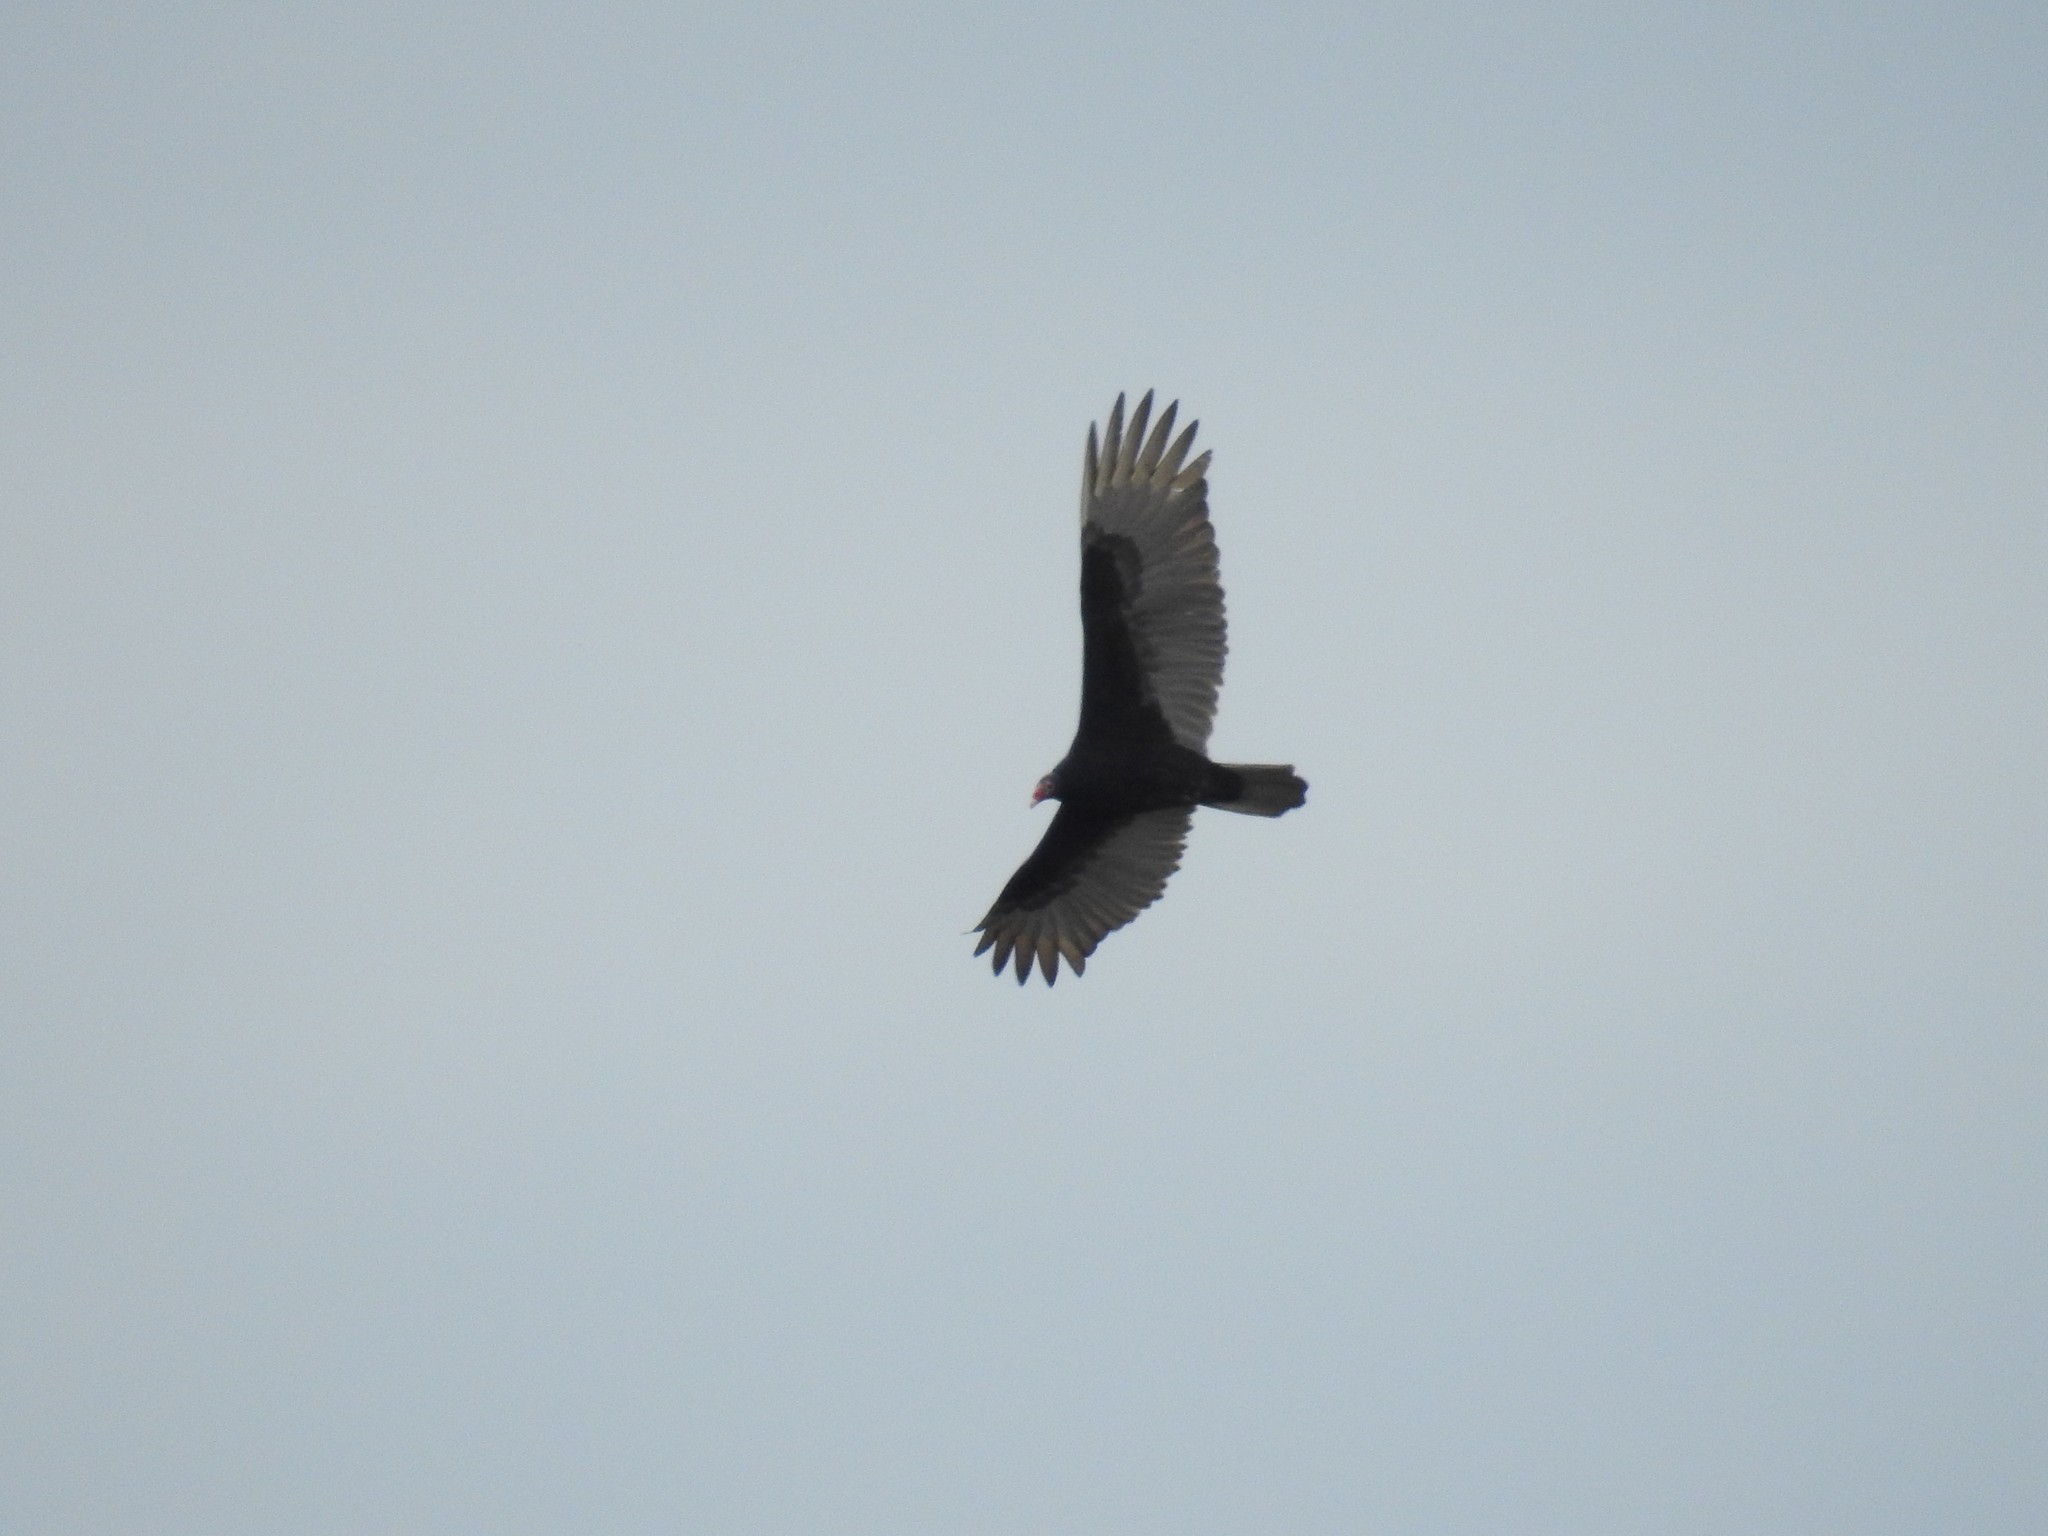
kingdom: Animalia
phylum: Chordata
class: Aves
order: Accipitriformes
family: Cathartidae
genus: Cathartes
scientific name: Cathartes aura
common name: Turkey vulture
